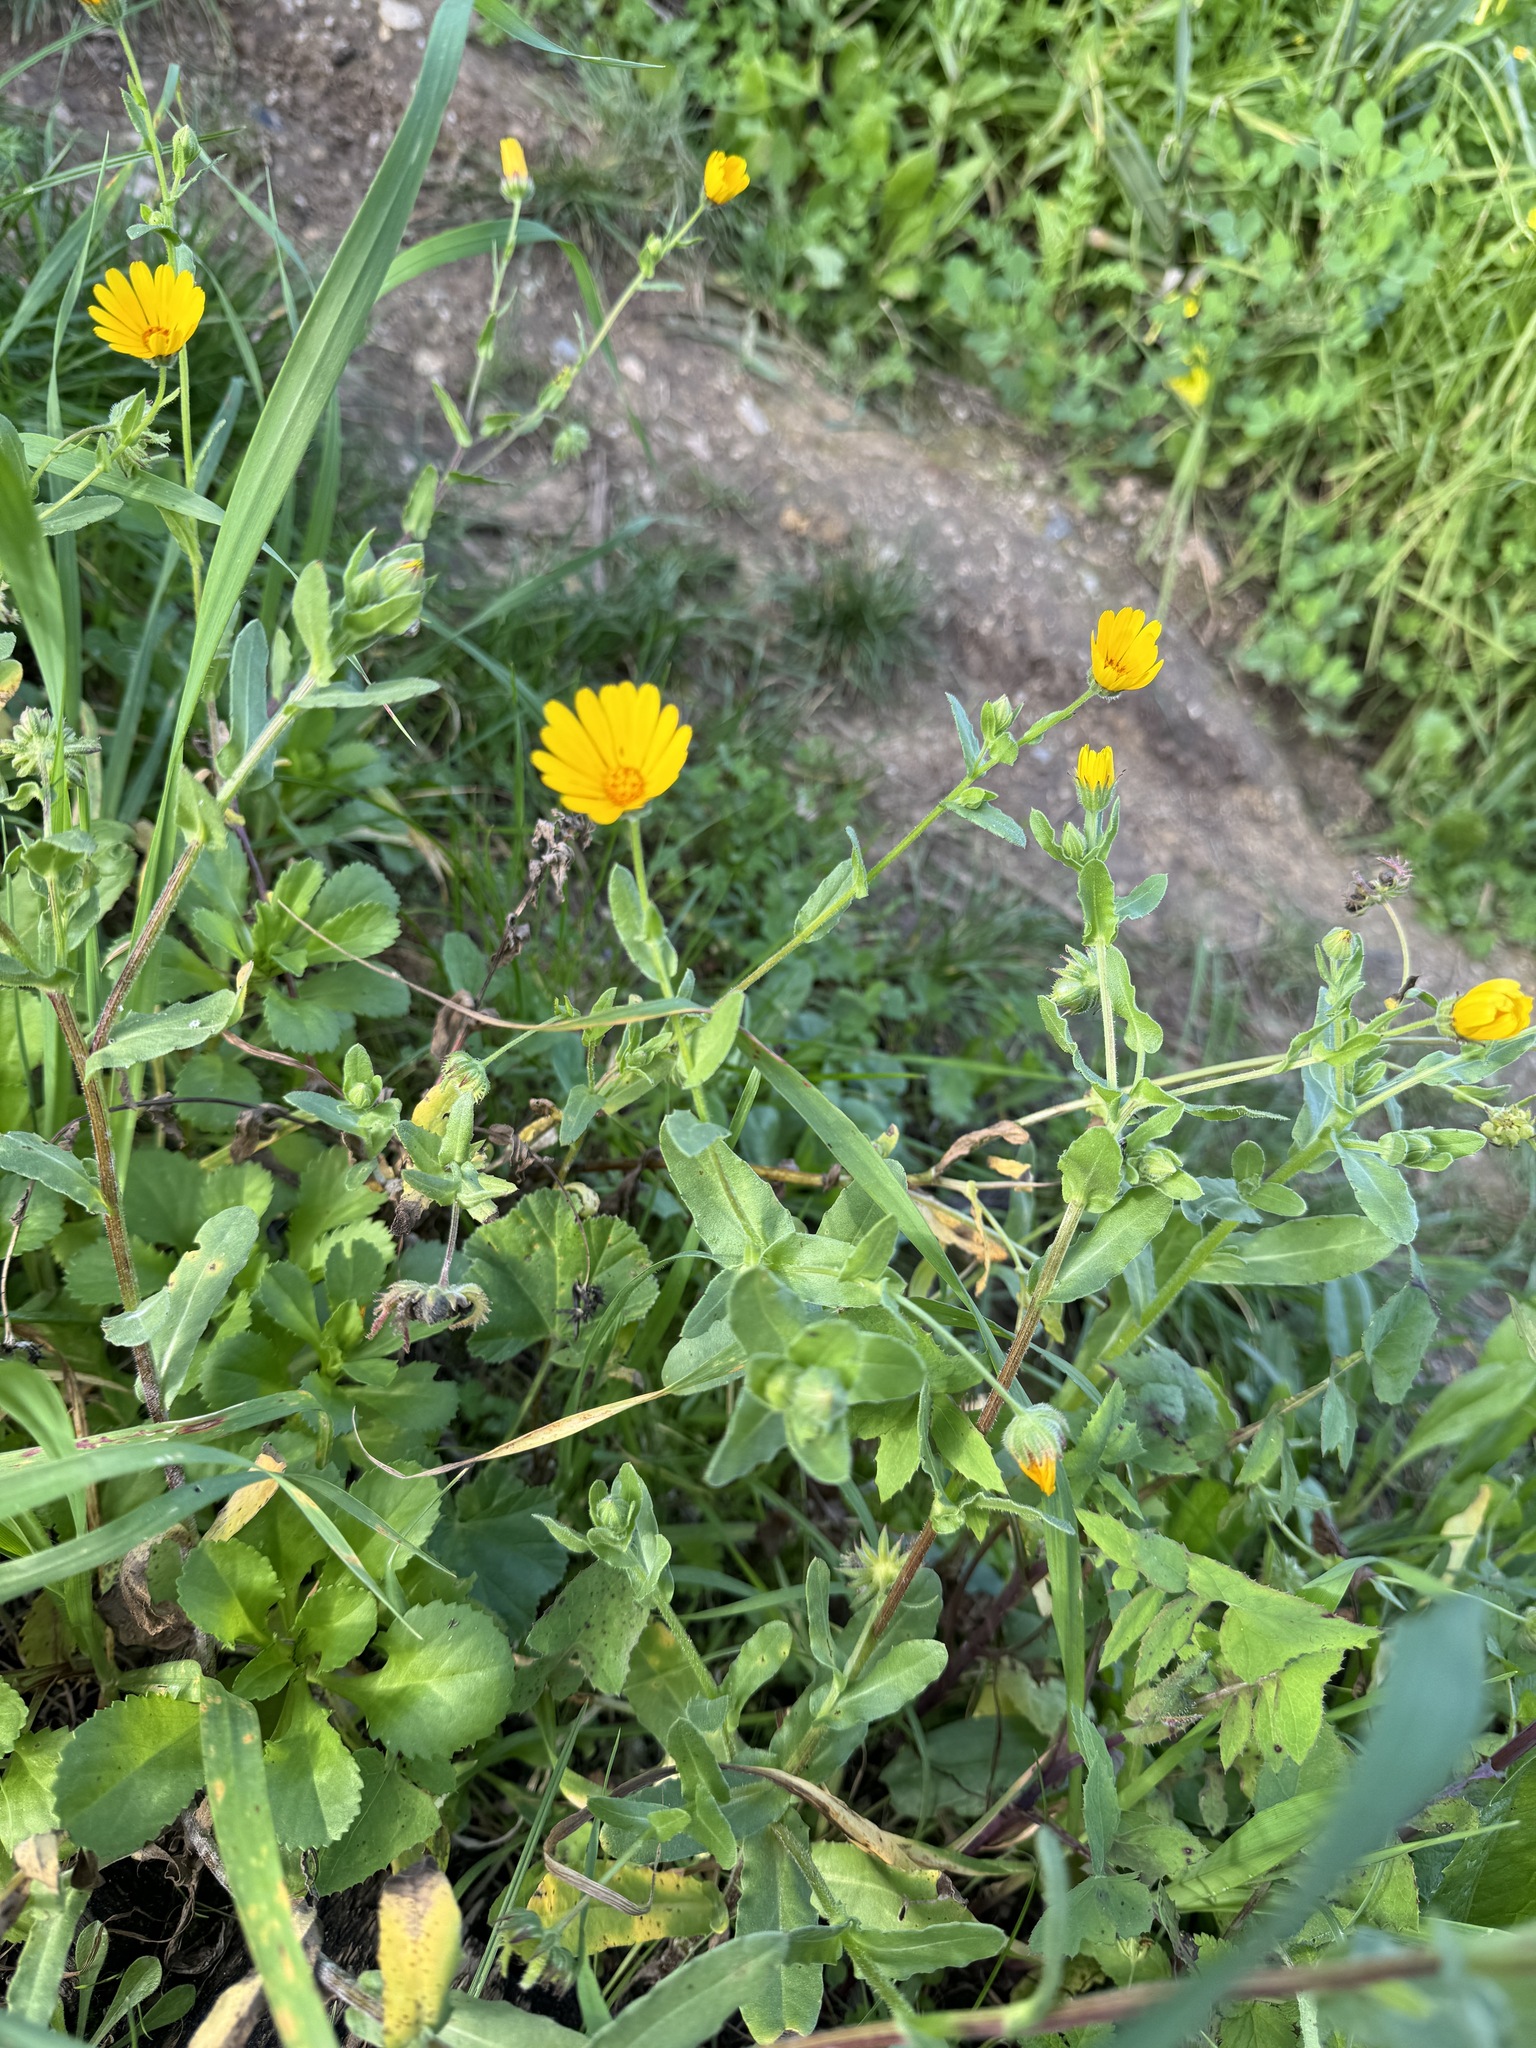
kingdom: Plantae
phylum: Tracheophyta
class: Magnoliopsida
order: Asterales
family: Asteraceae
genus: Calendula
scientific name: Calendula arvensis
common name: Field marigold
